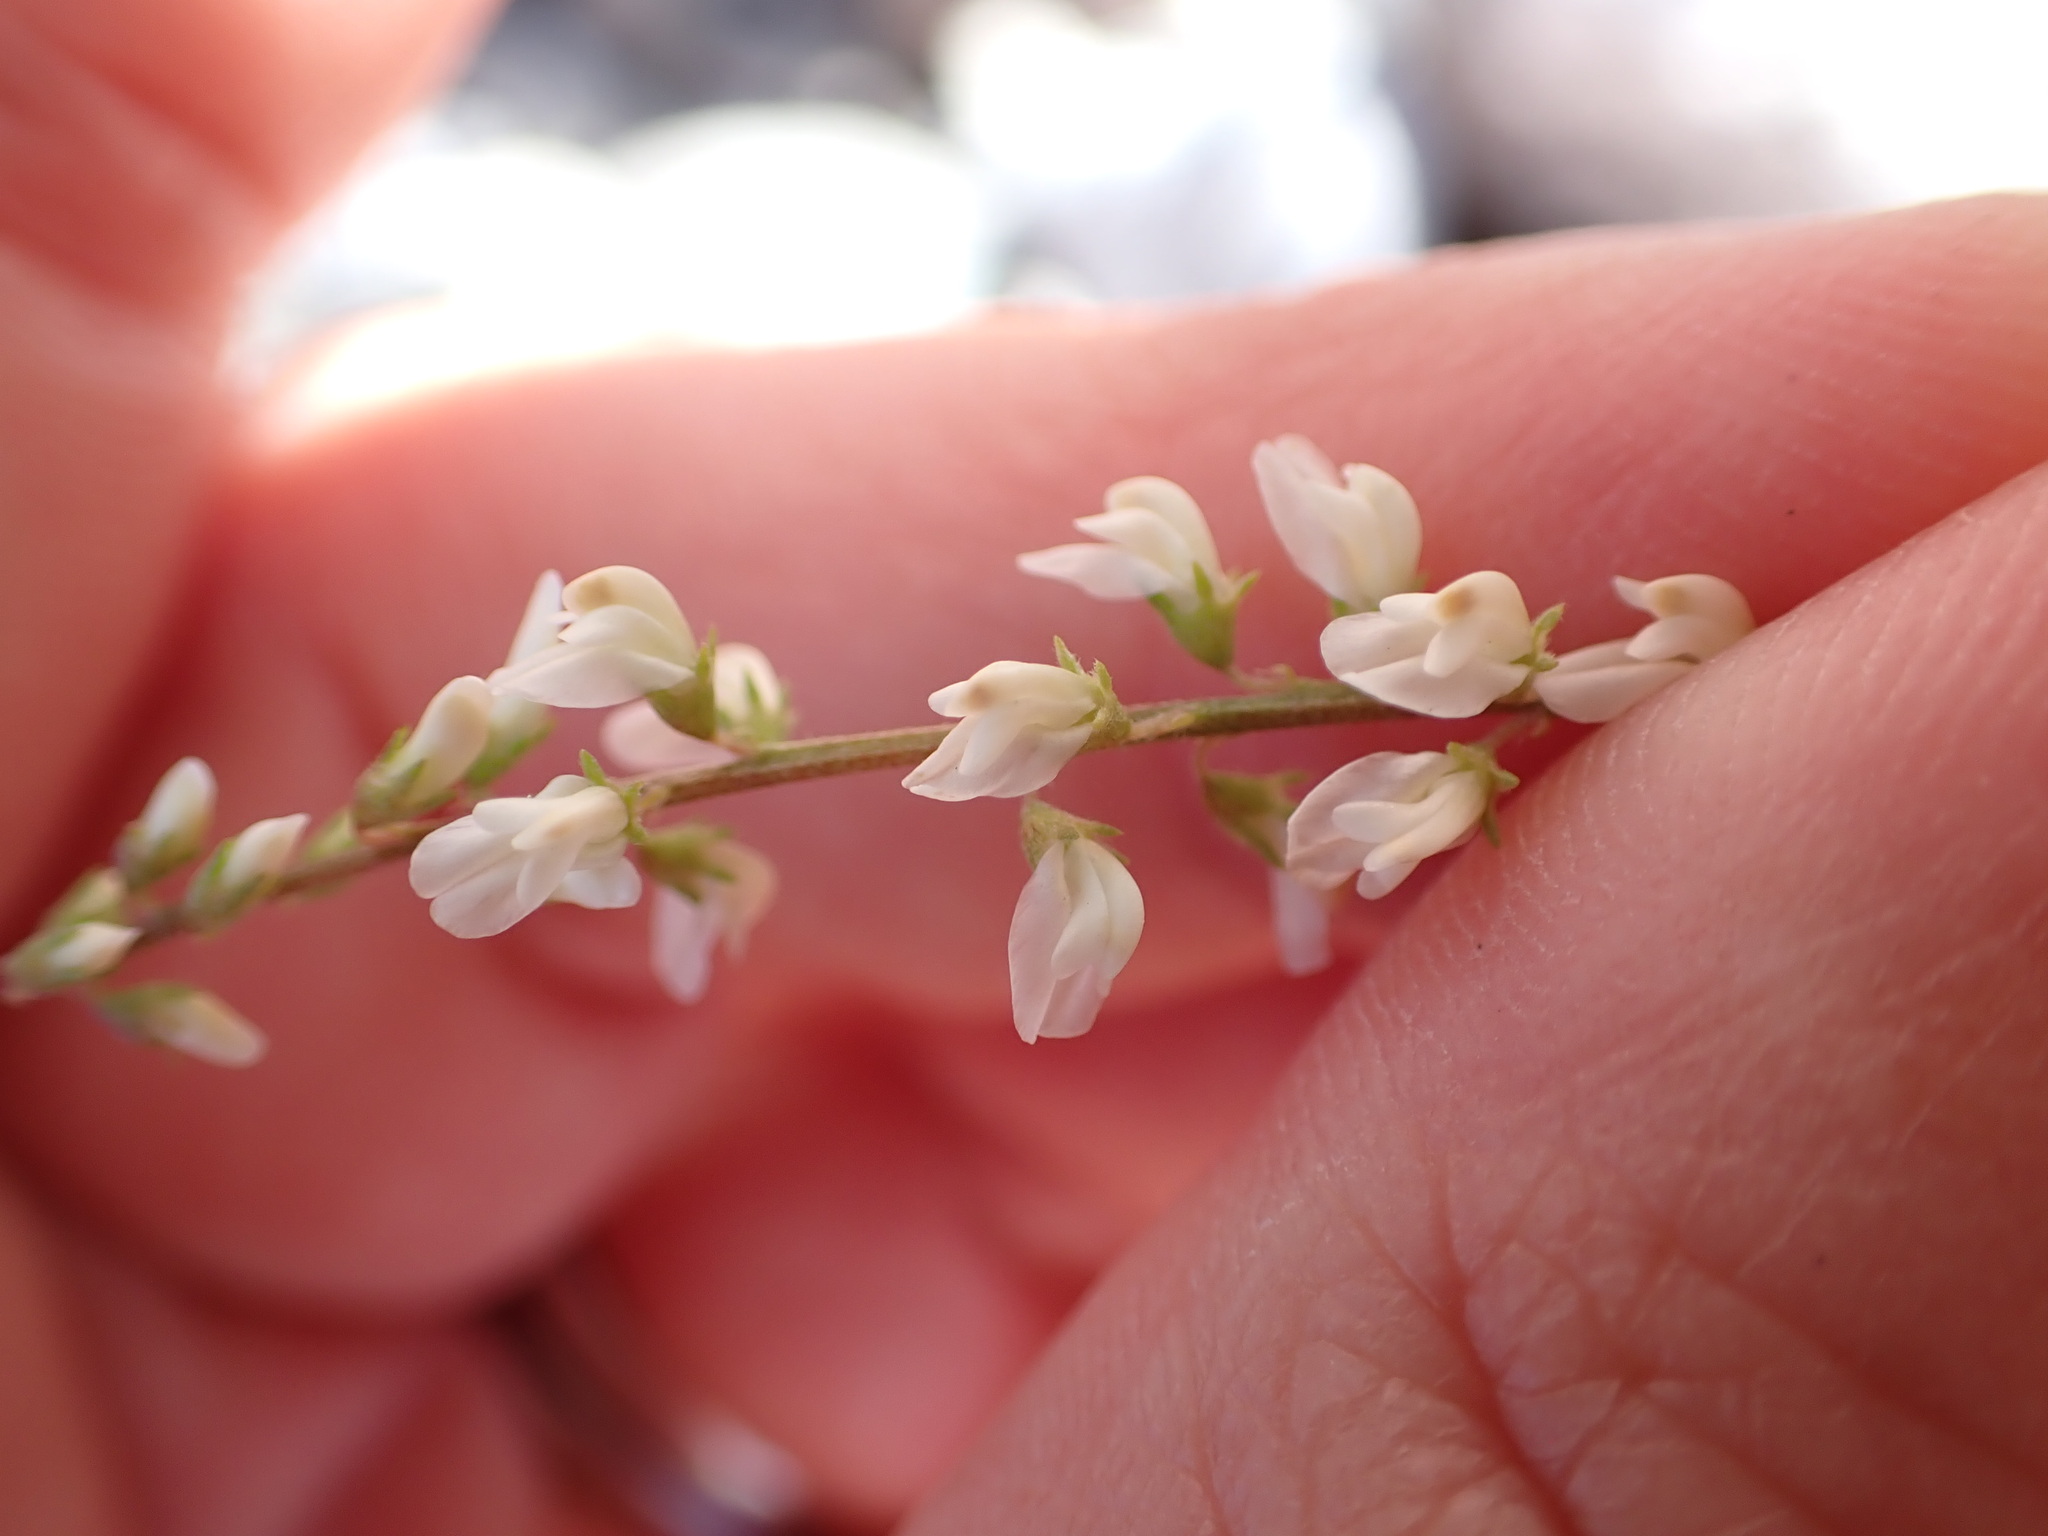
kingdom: Plantae
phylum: Tracheophyta
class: Magnoliopsida
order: Fabales
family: Fabaceae
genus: Melilotus
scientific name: Melilotus albus
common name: White melilot
